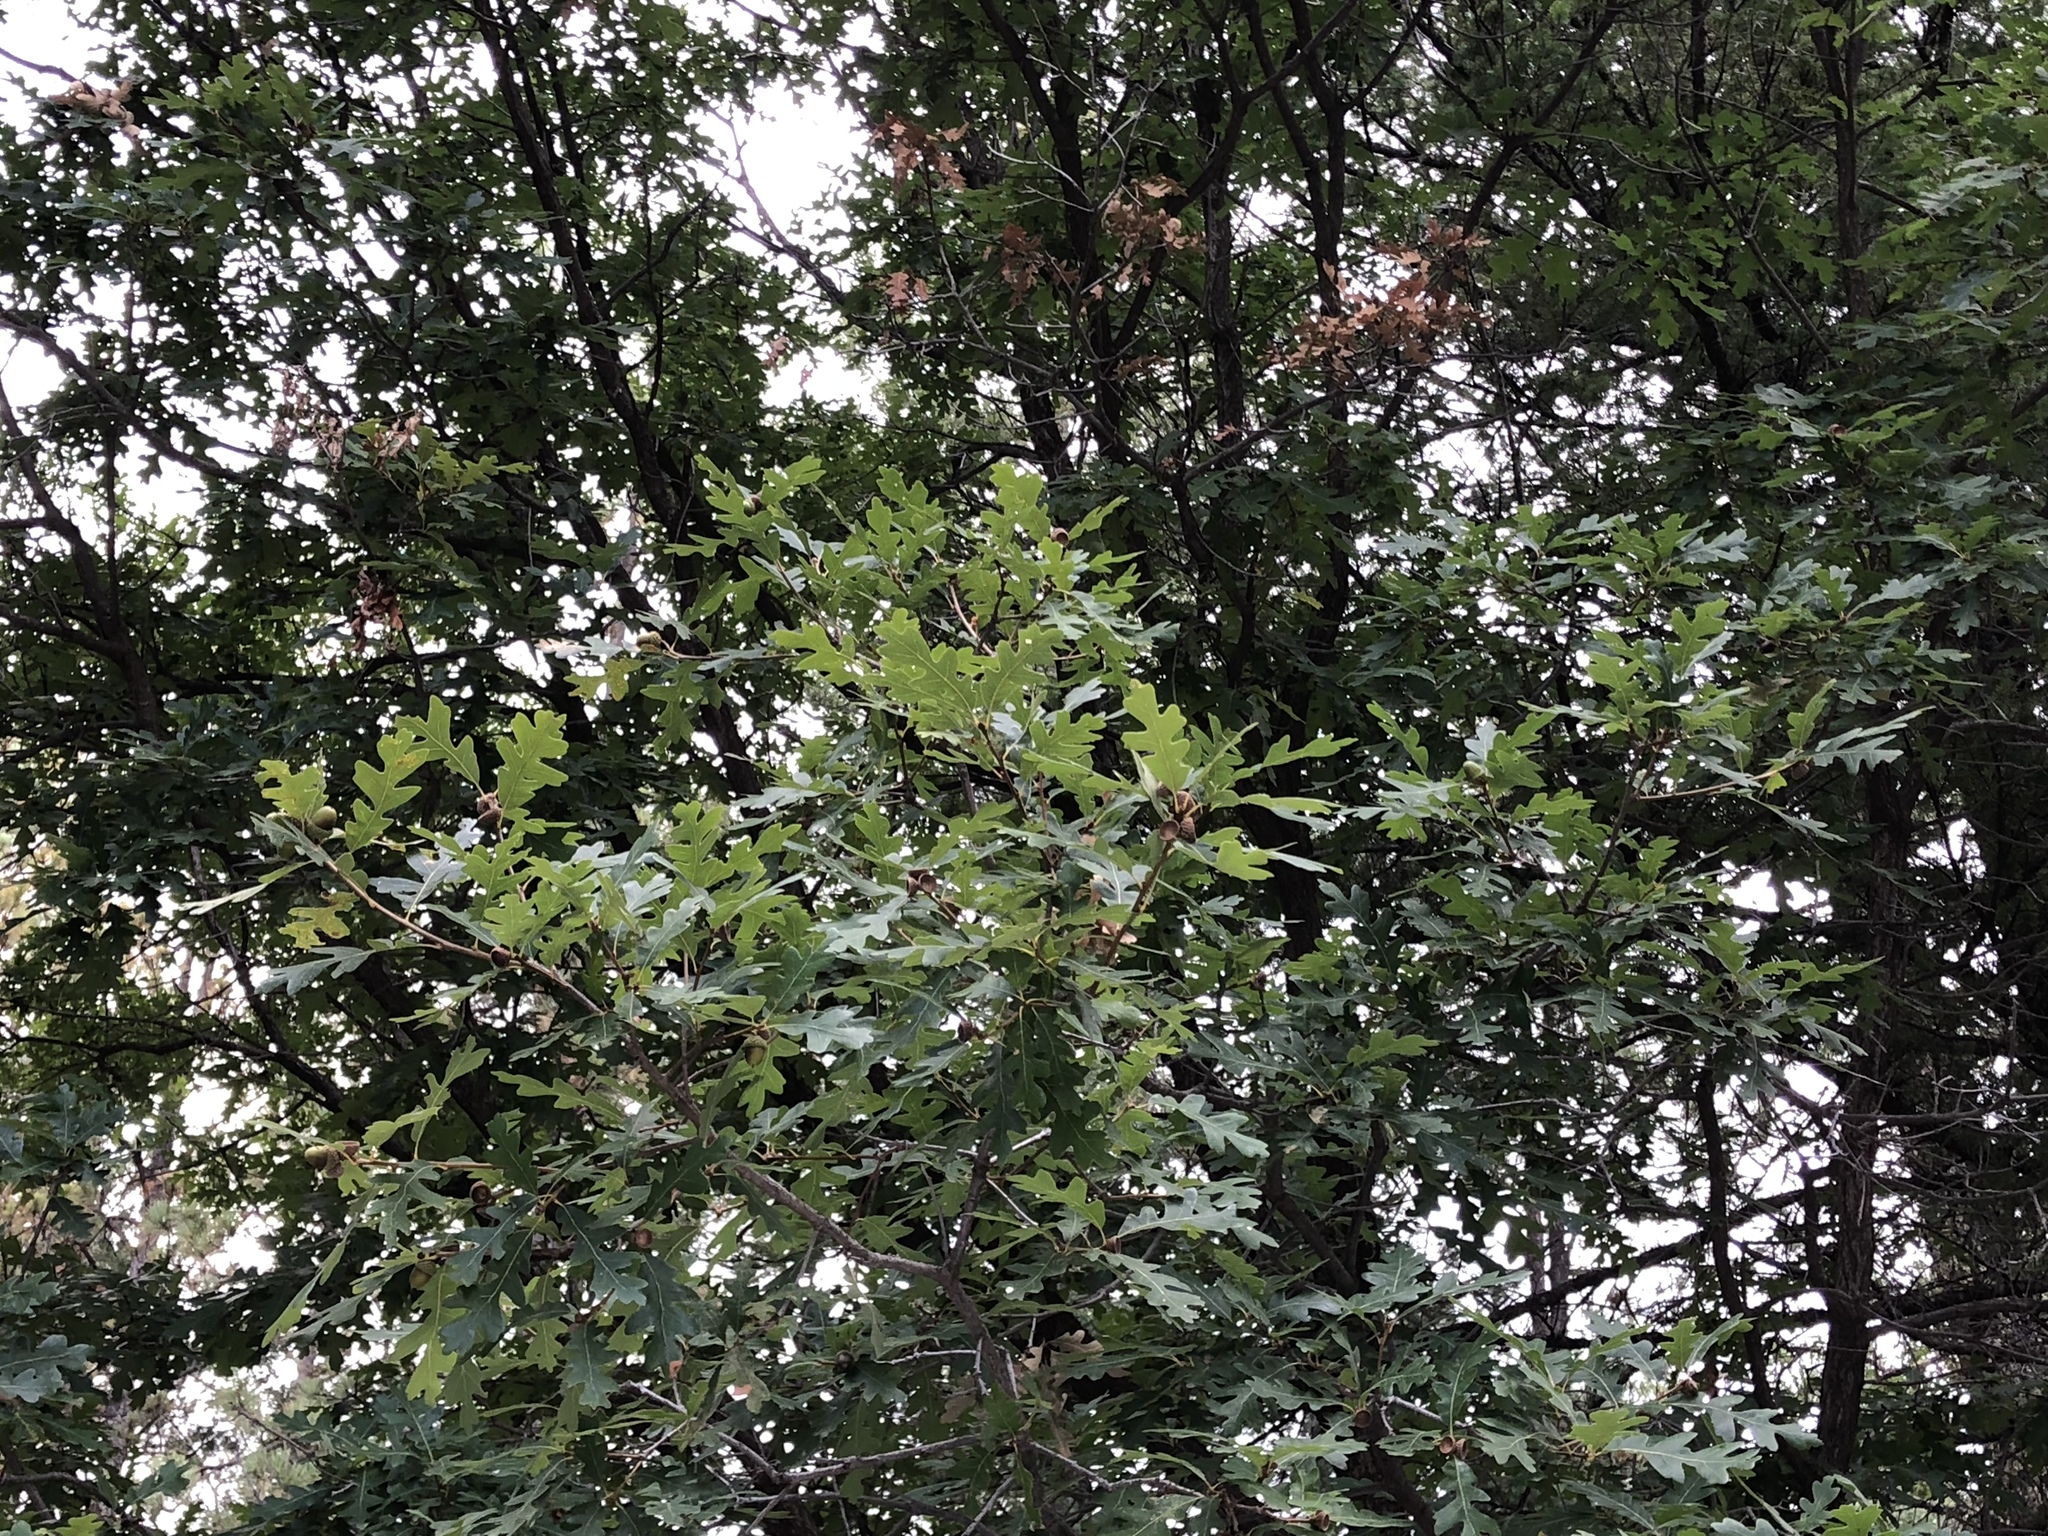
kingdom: Plantae
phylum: Tracheophyta
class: Magnoliopsida
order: Fagales
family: Fagaceae
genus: Quercus
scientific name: Quercus gambelii
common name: Gambel oak
